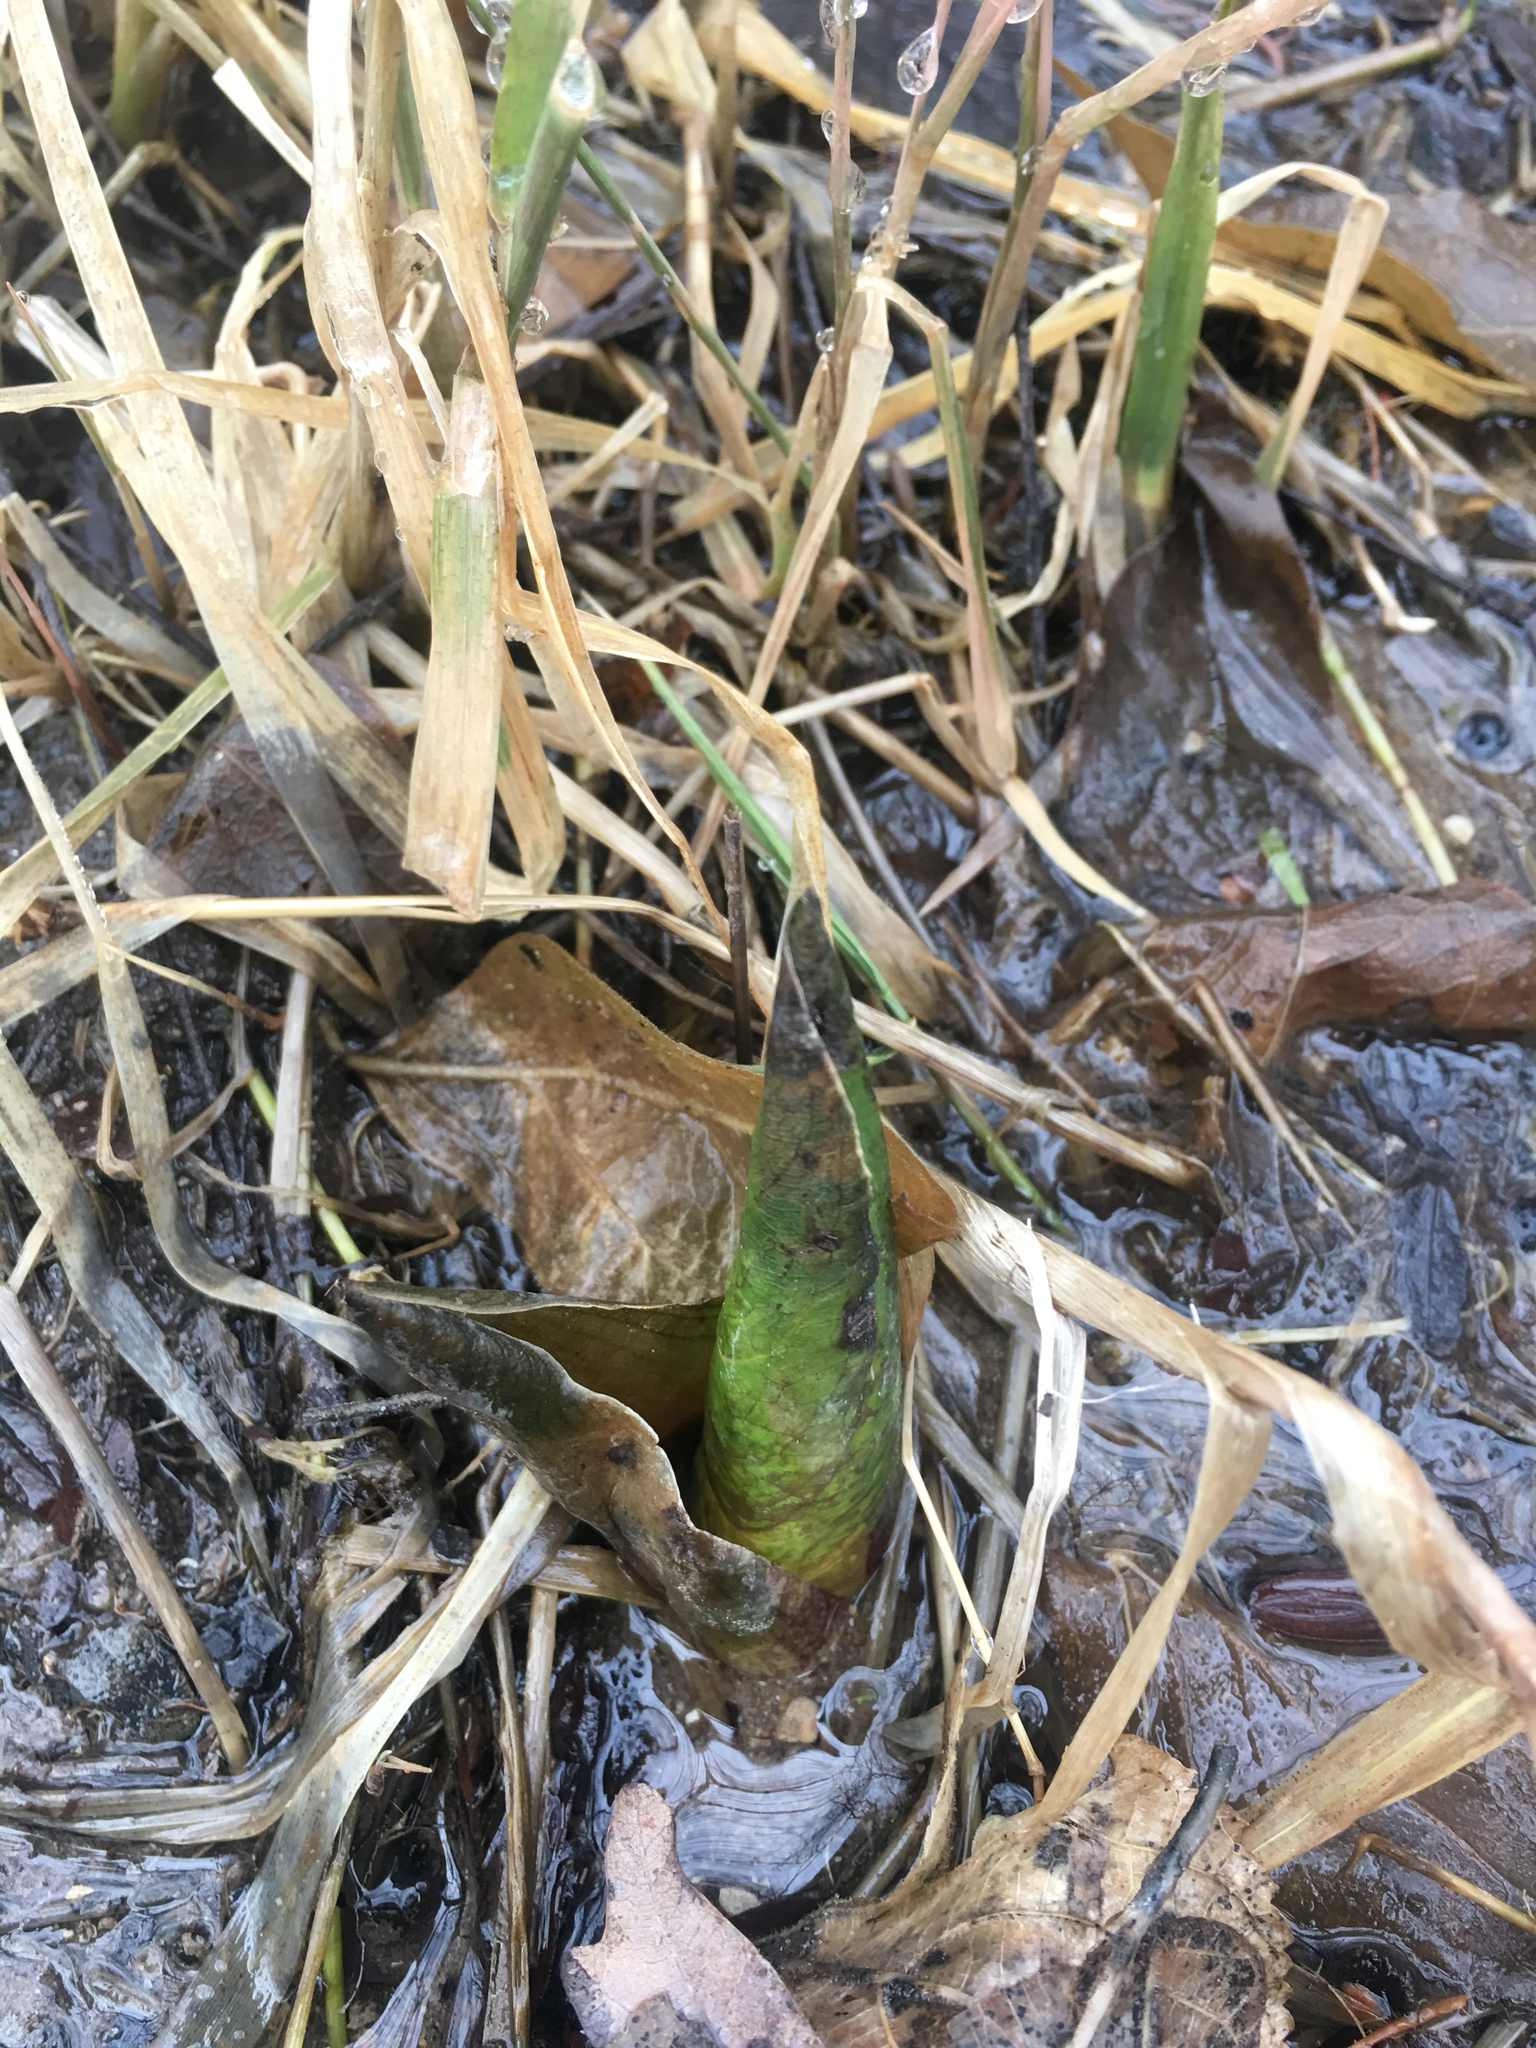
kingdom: Plantae
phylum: Tracheophyta
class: Liliopsida
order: Alismatales
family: Araceae
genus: Symplocarpus
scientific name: Symplocarpus foetidus
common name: Eastern skunk cabbage
